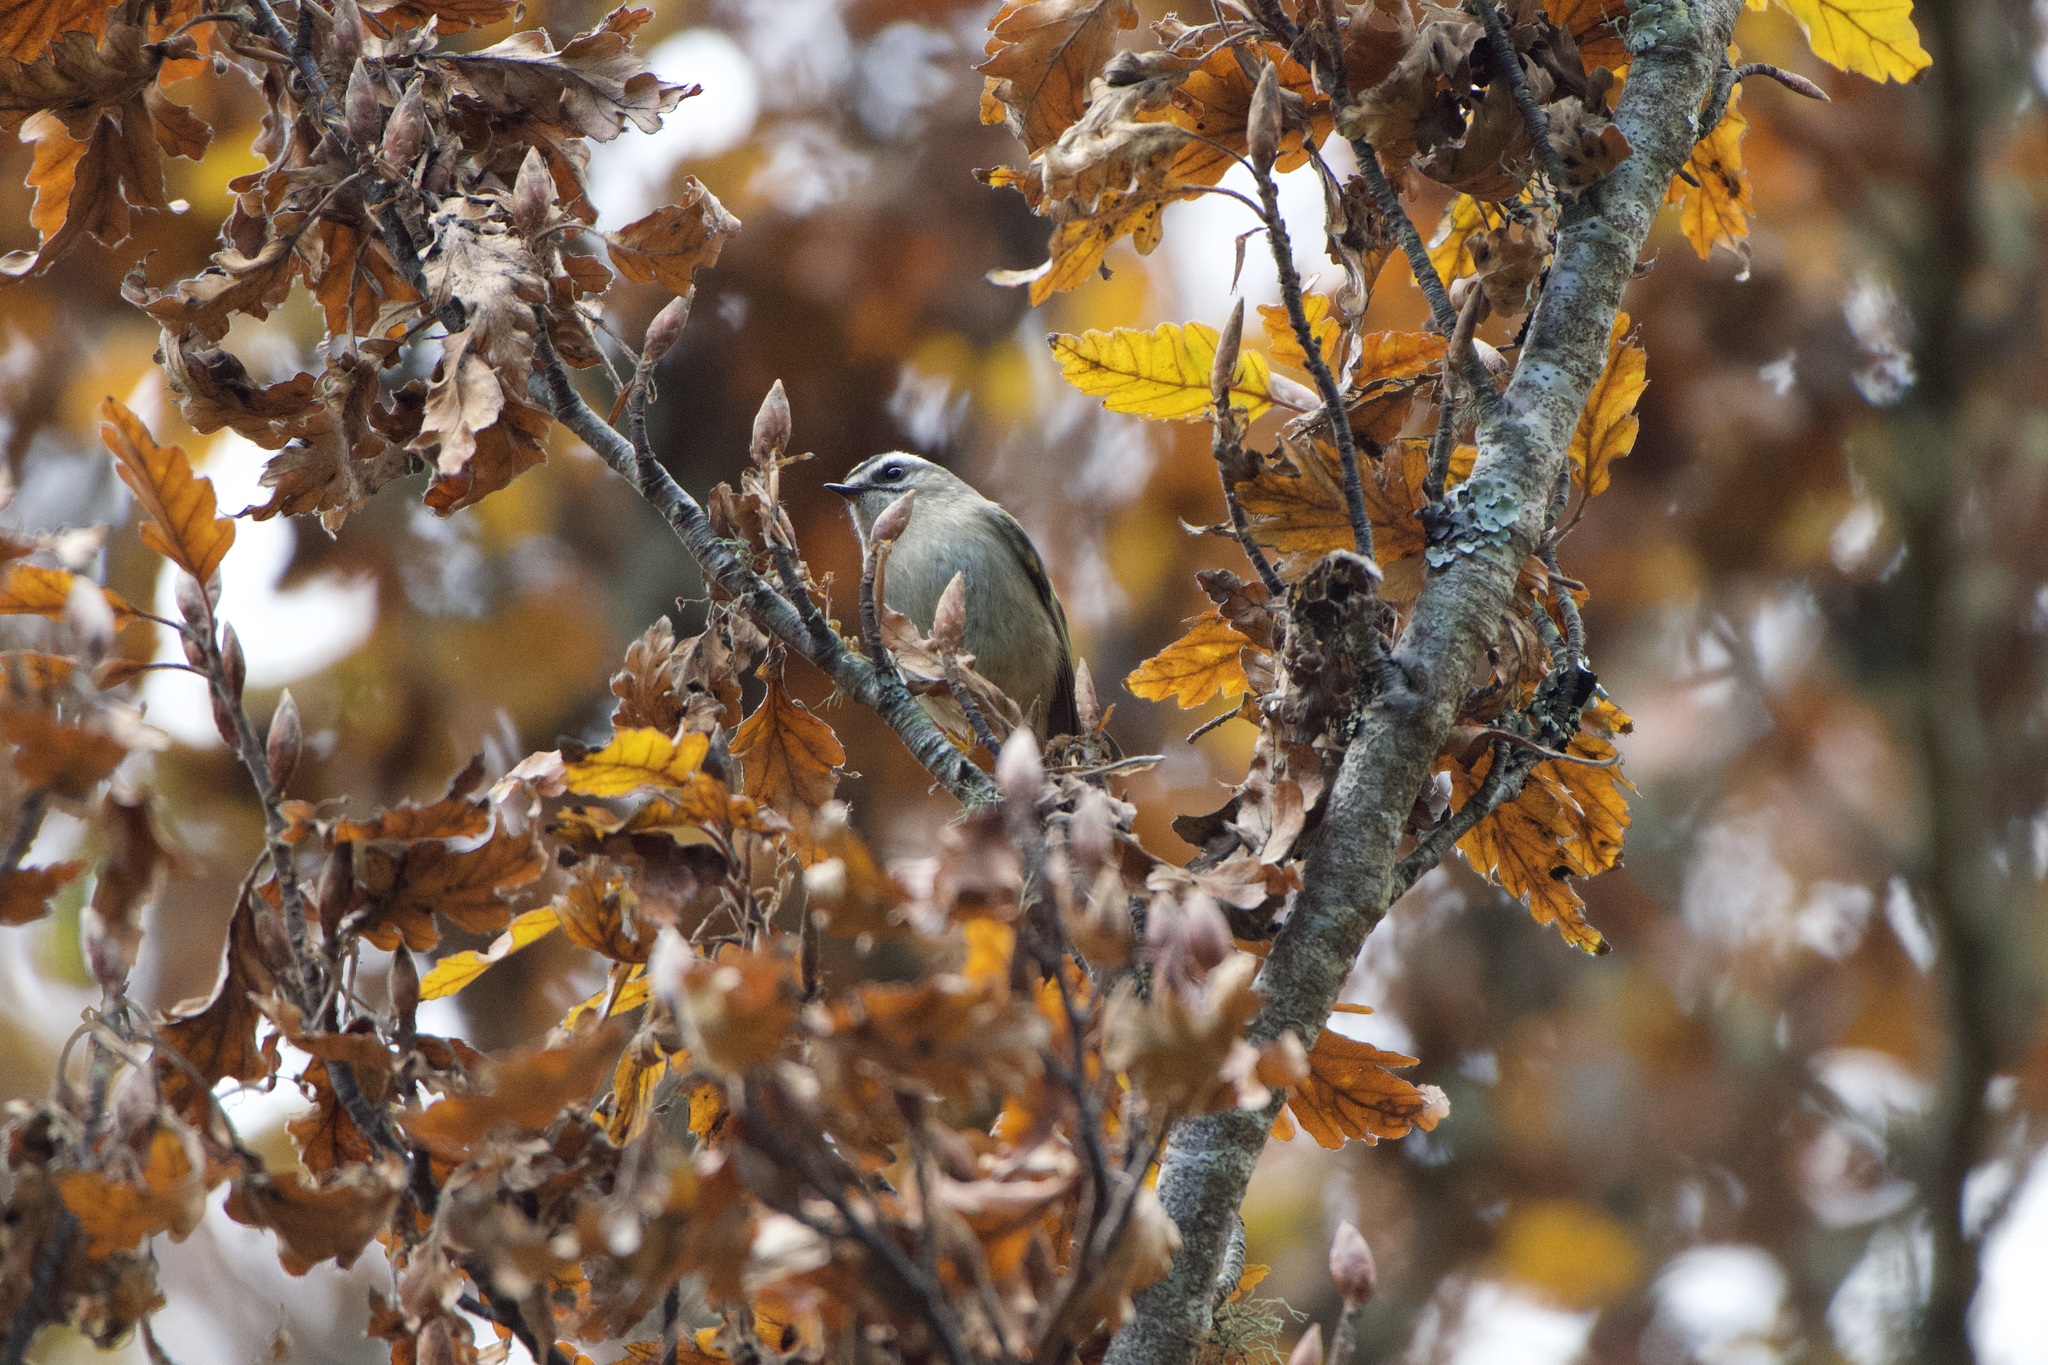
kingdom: Animalia
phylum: Chordata
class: Aves
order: Passeriformes
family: Regulidae
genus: Regulus
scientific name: Regulus satrapa
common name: Golden-crowned kinglet
